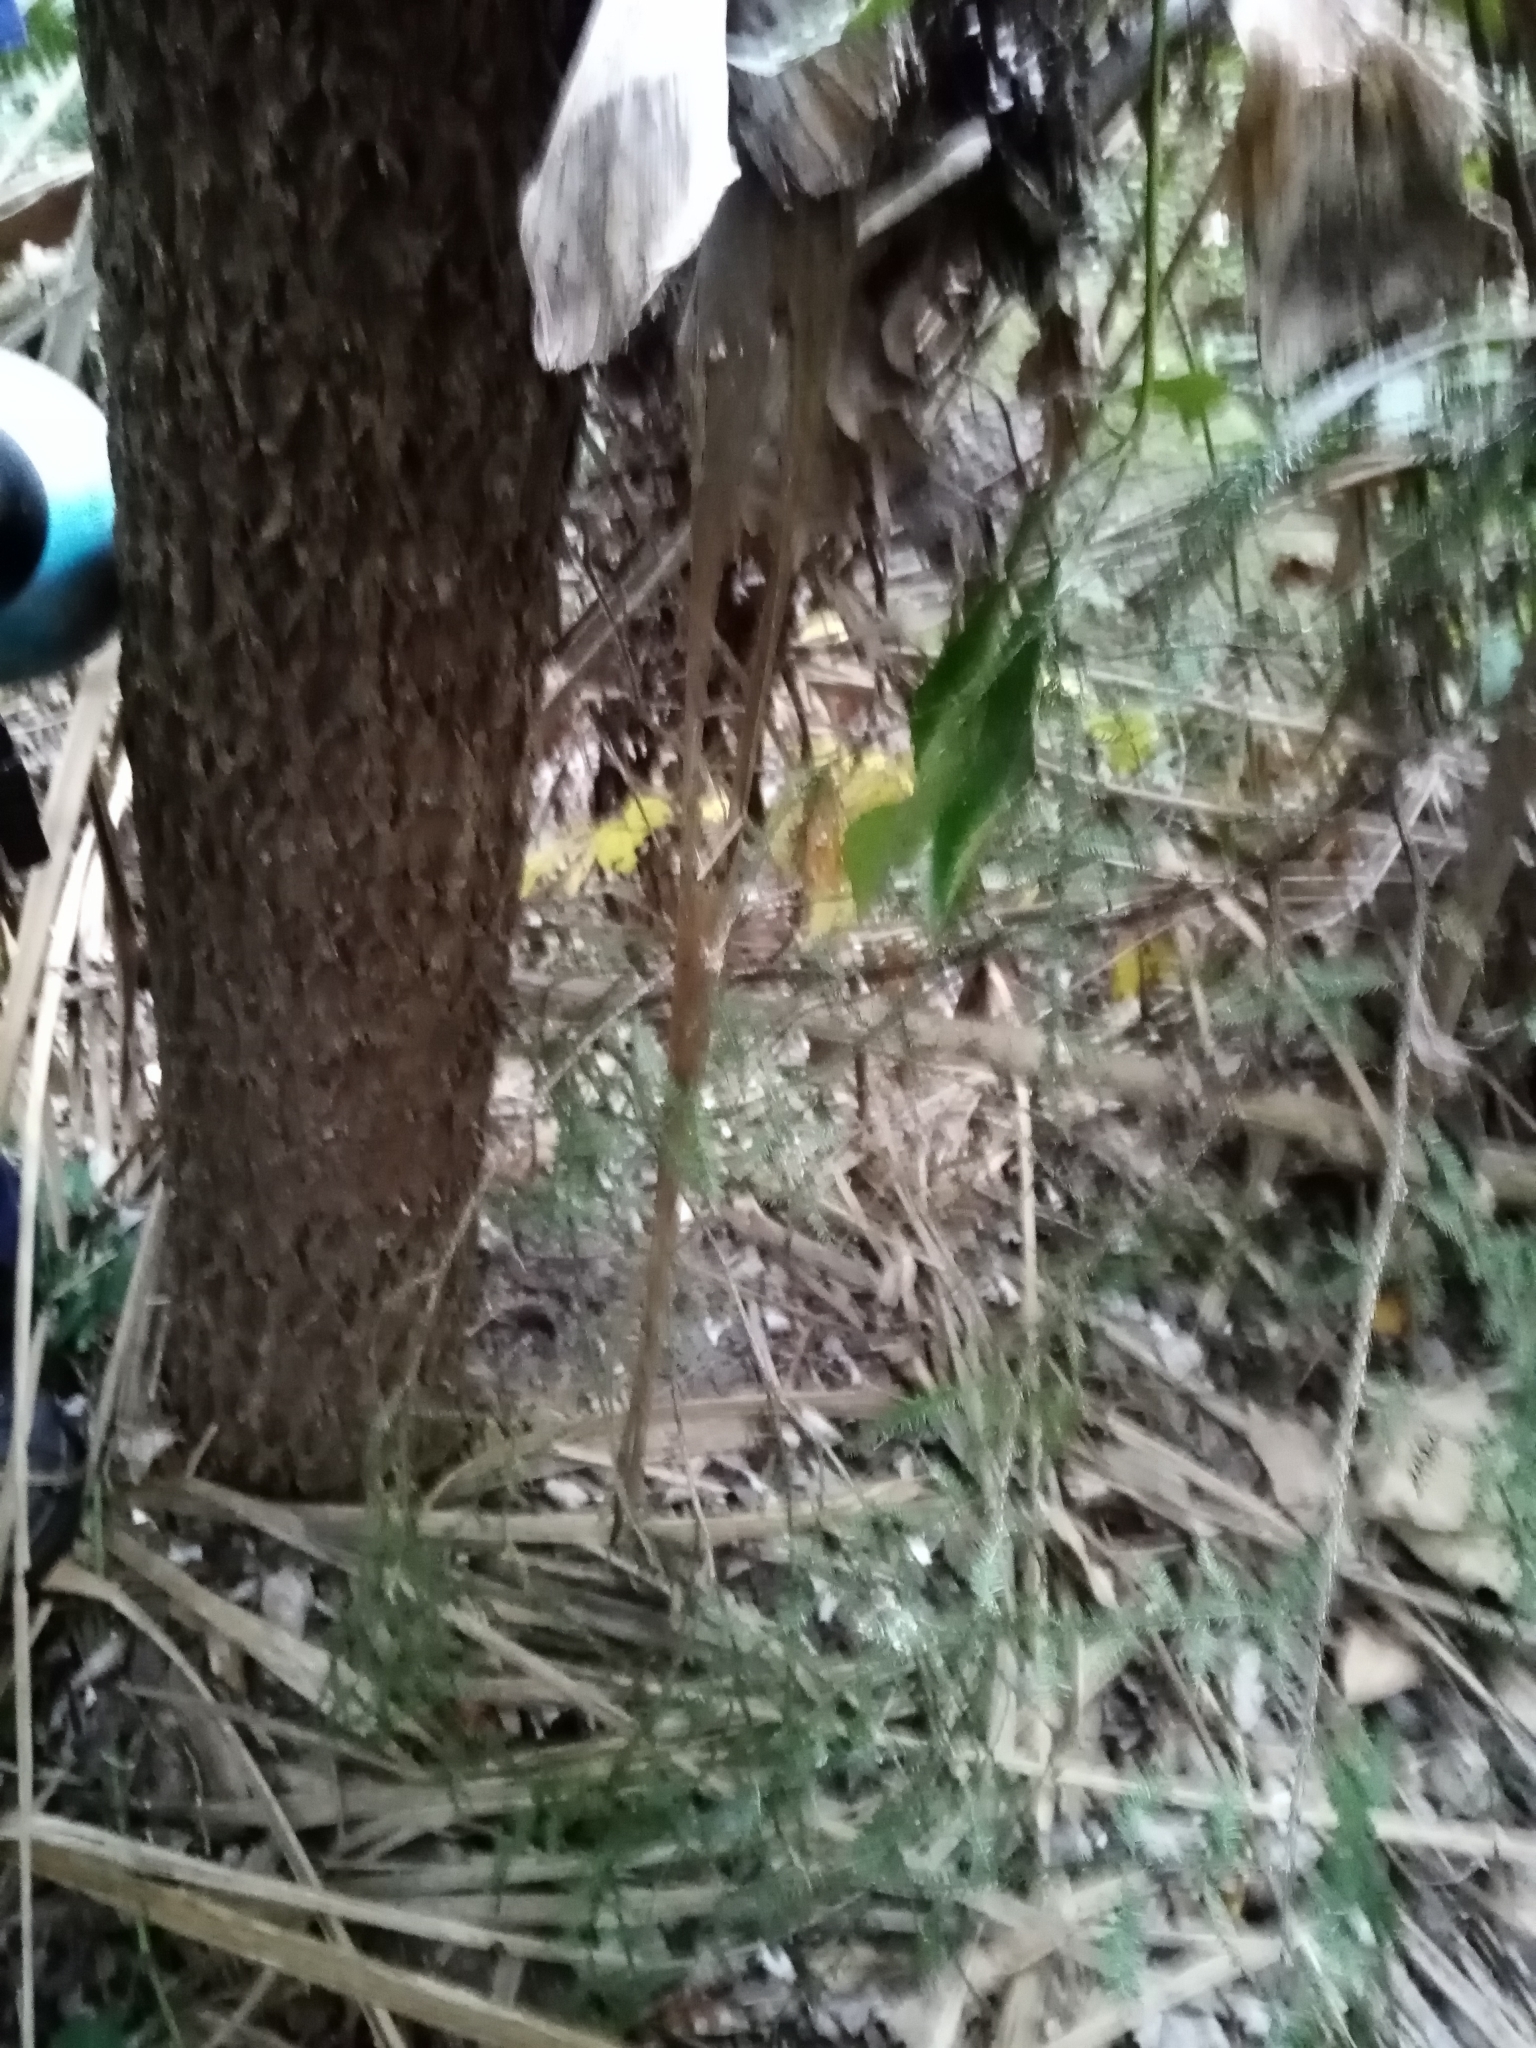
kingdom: Plantae
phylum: Tracheophyta
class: Pinopsida
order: Pinales
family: Podocarpaceae
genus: Dacrycarpus
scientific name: Dacrycarpus dacrydioides
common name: White pine
